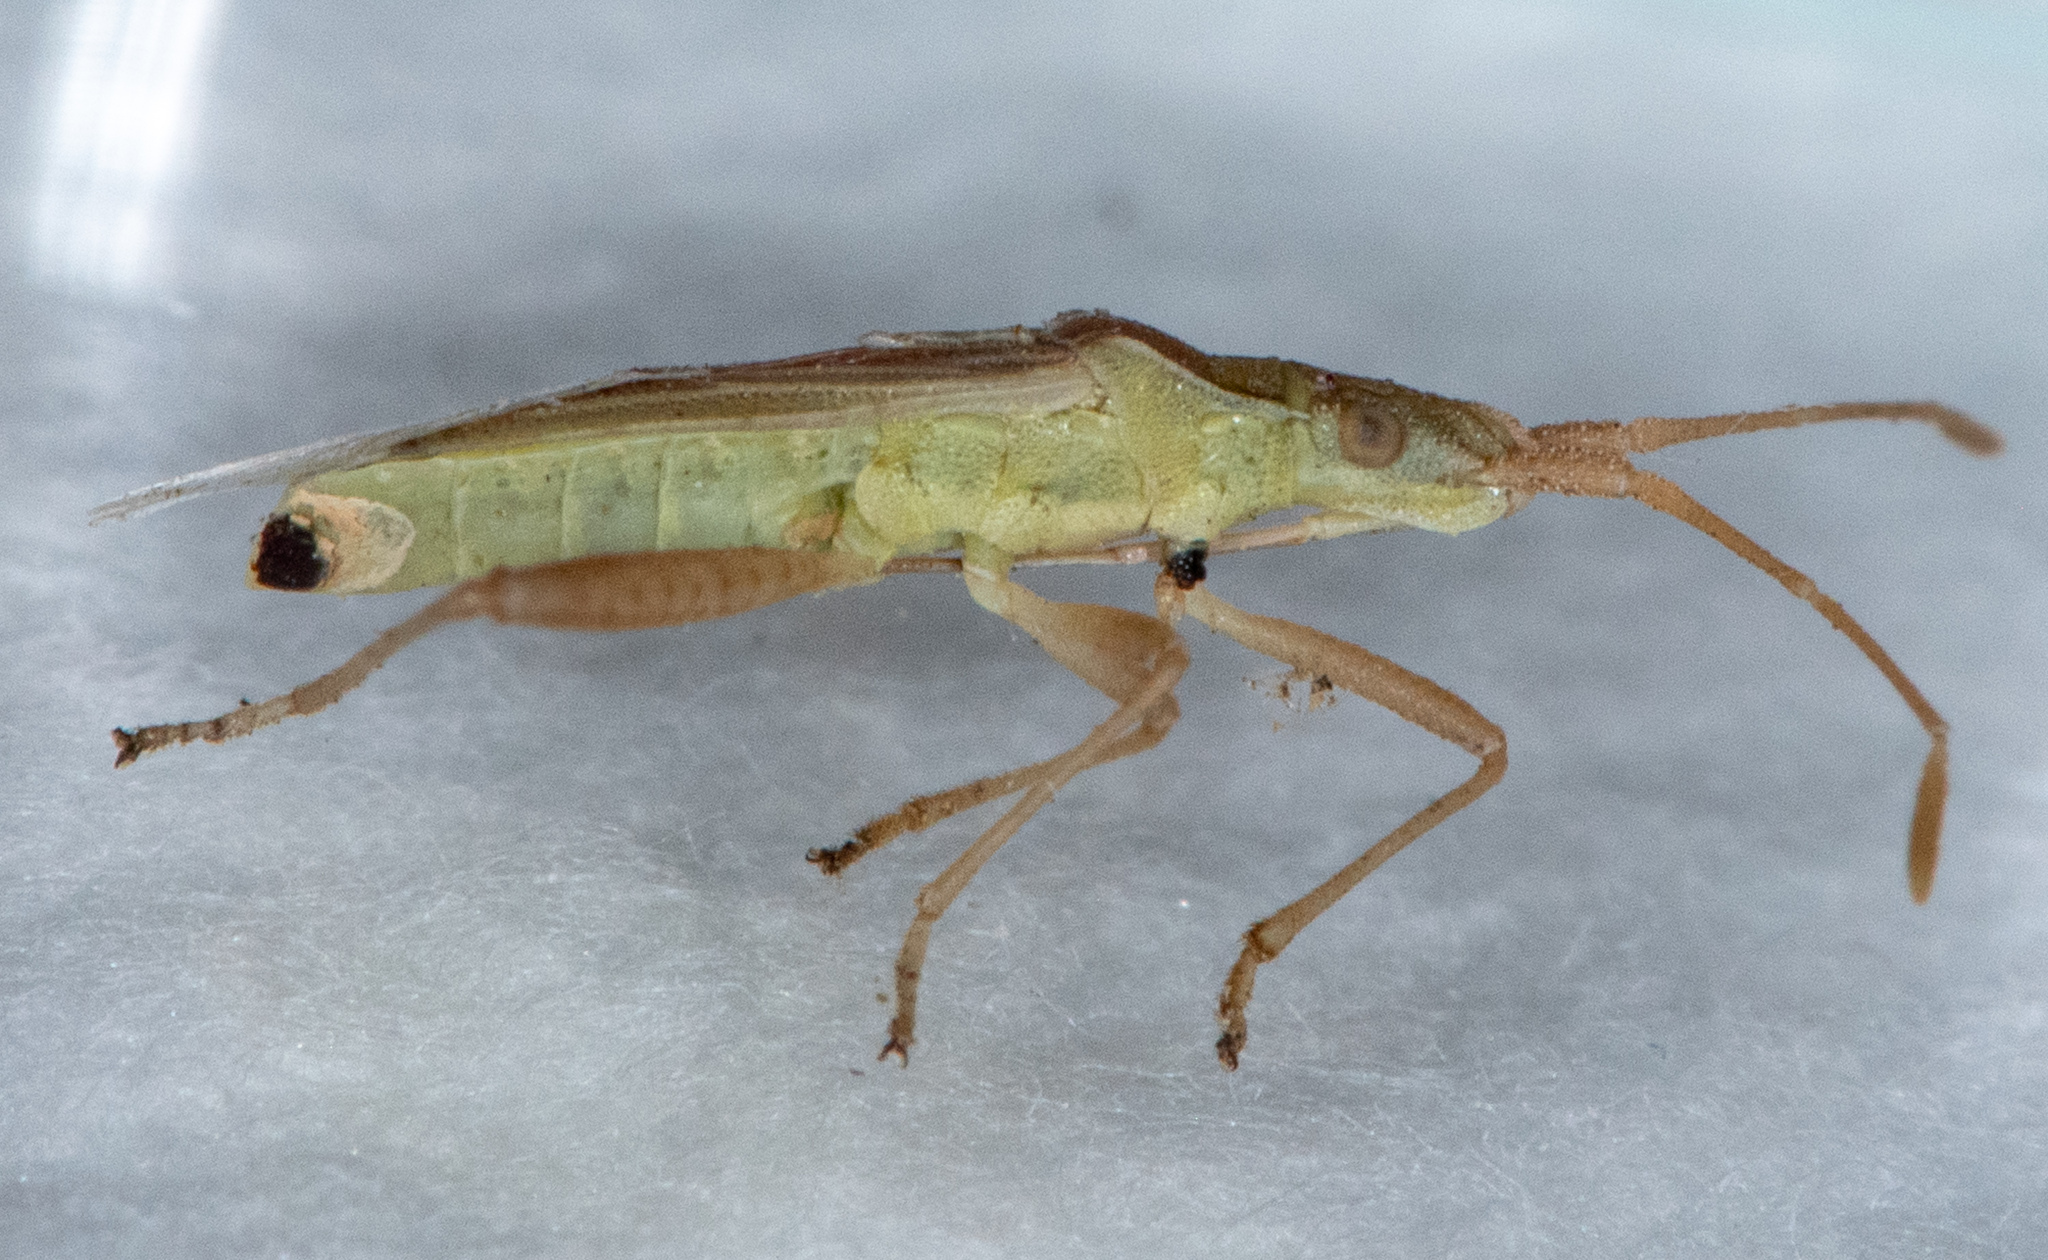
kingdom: Animalia
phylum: Arthropoda
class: Insecta
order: Hemiptera
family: Rhopalidae
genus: Harmostes
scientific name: Harmostes reflexulus
